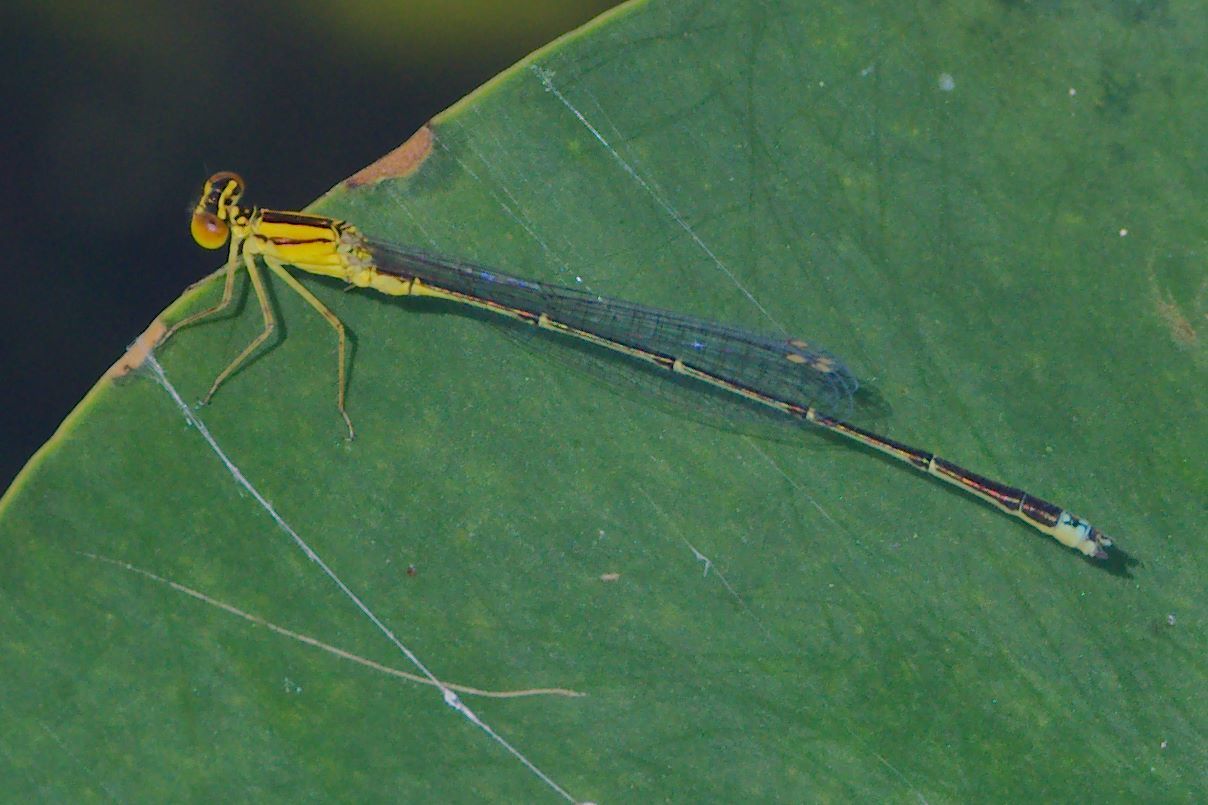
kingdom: Animalia
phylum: Arthropoda
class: Insecta
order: Odonata
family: Coenagrionidae
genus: Enallagma
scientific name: Enallagma vesperum
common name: Vesper bluet
